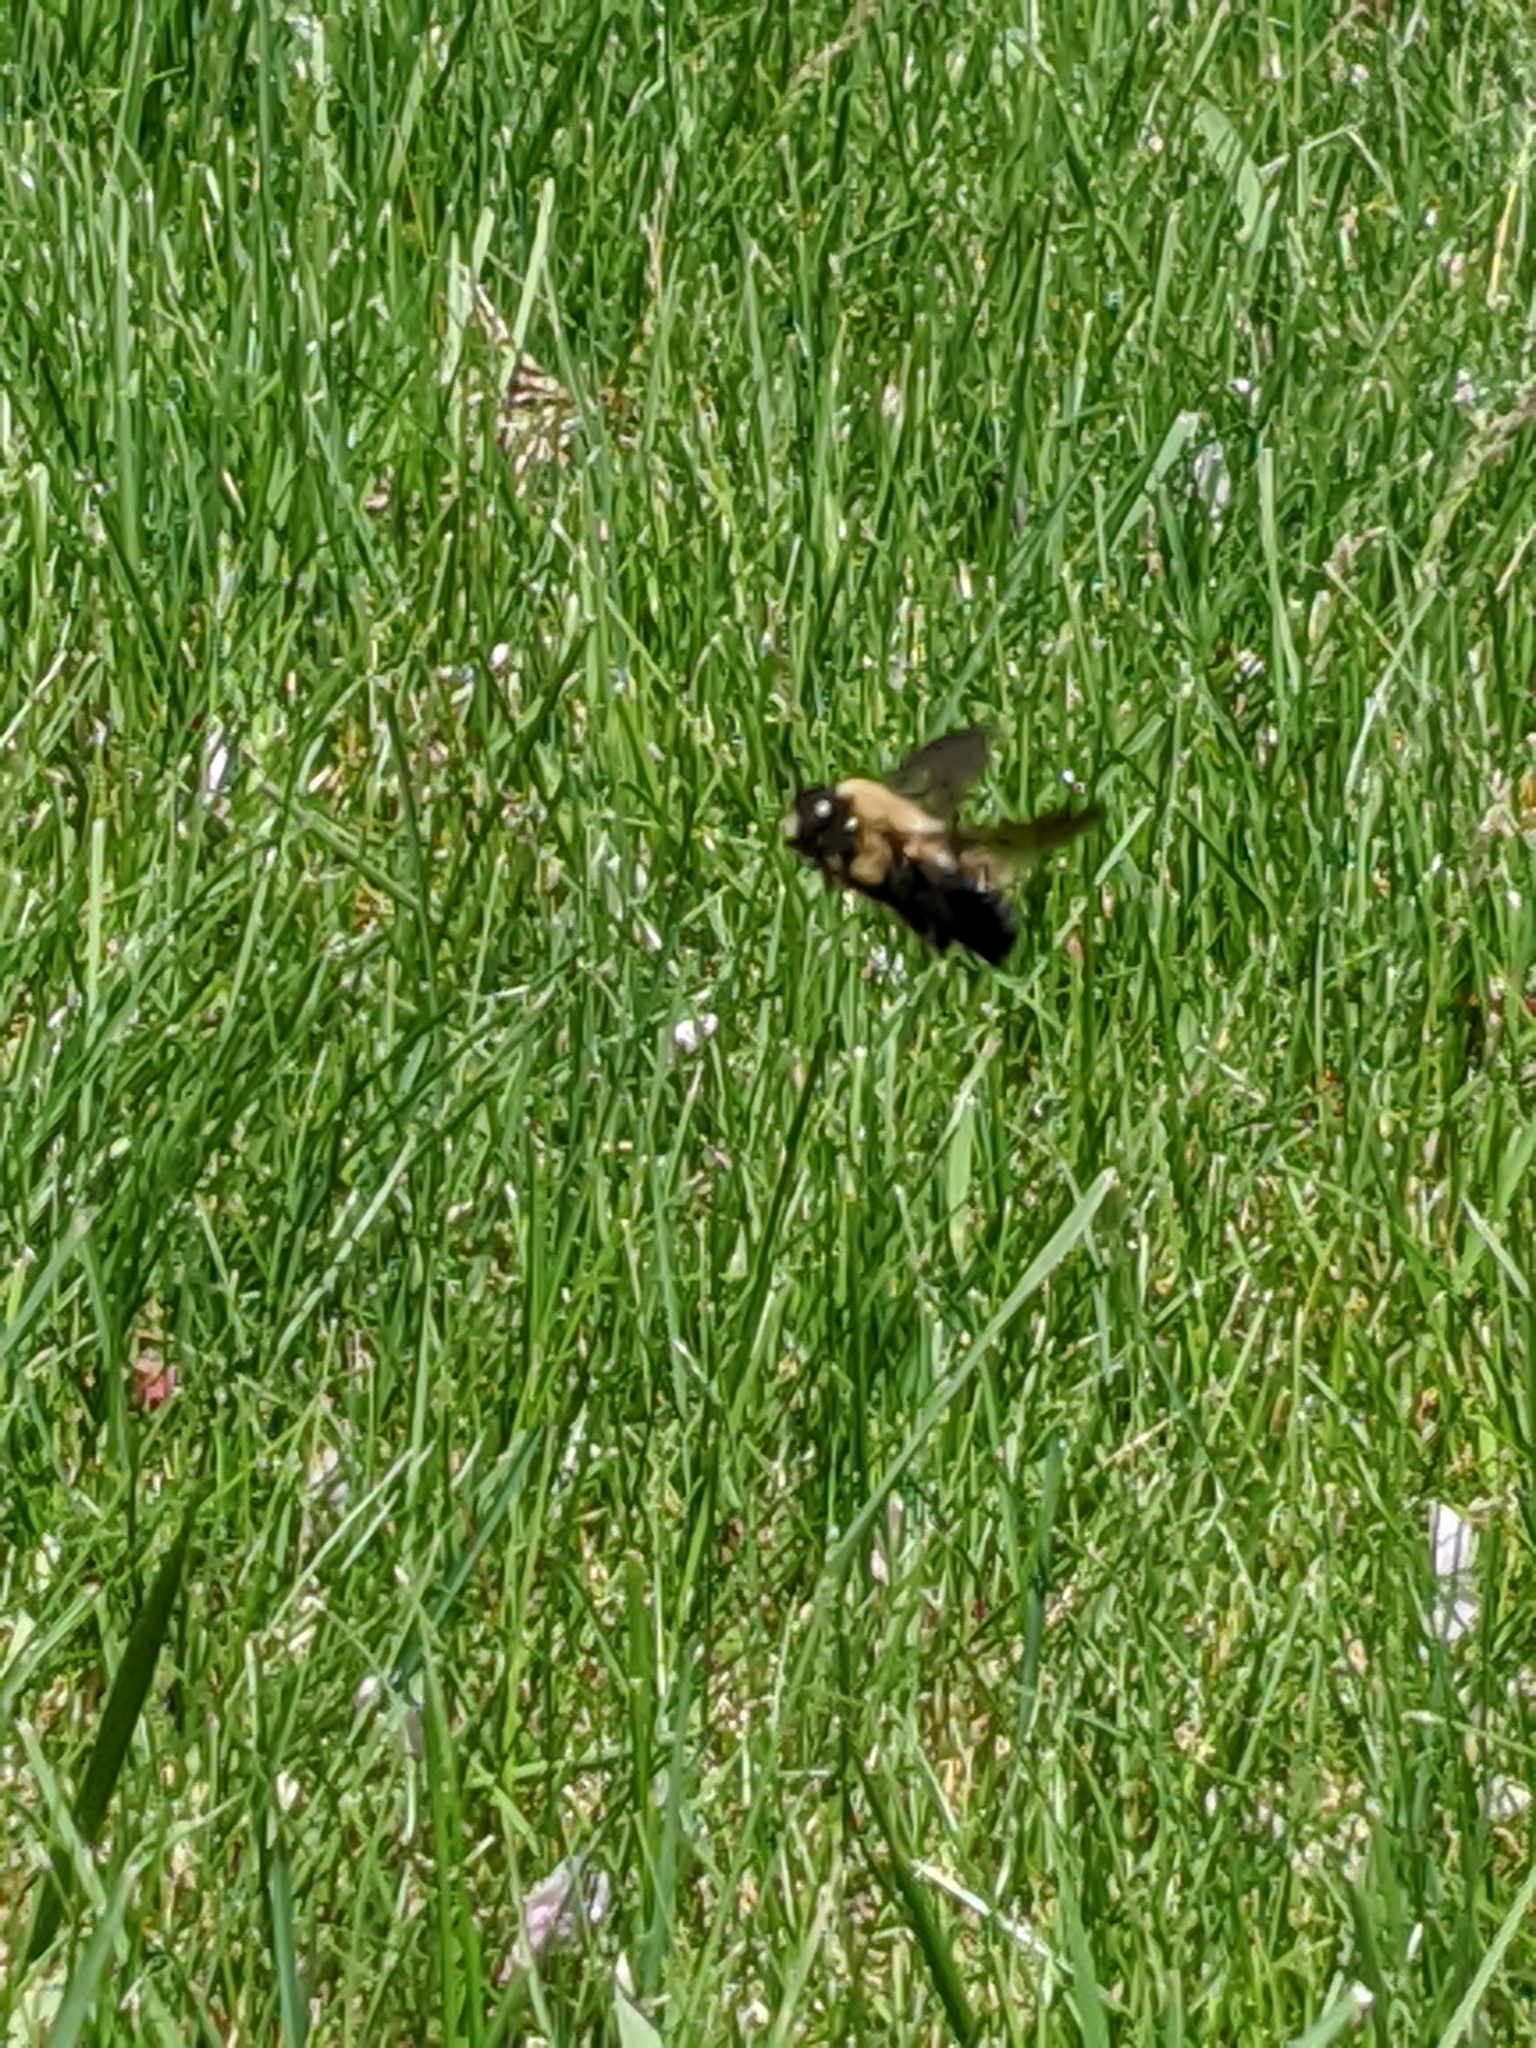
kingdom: Animalia
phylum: Arthropoda
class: Insecta
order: Hymenoptera
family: Apidae
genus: Xylocopa
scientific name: Xylocopa virginica
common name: Carpenter bee
